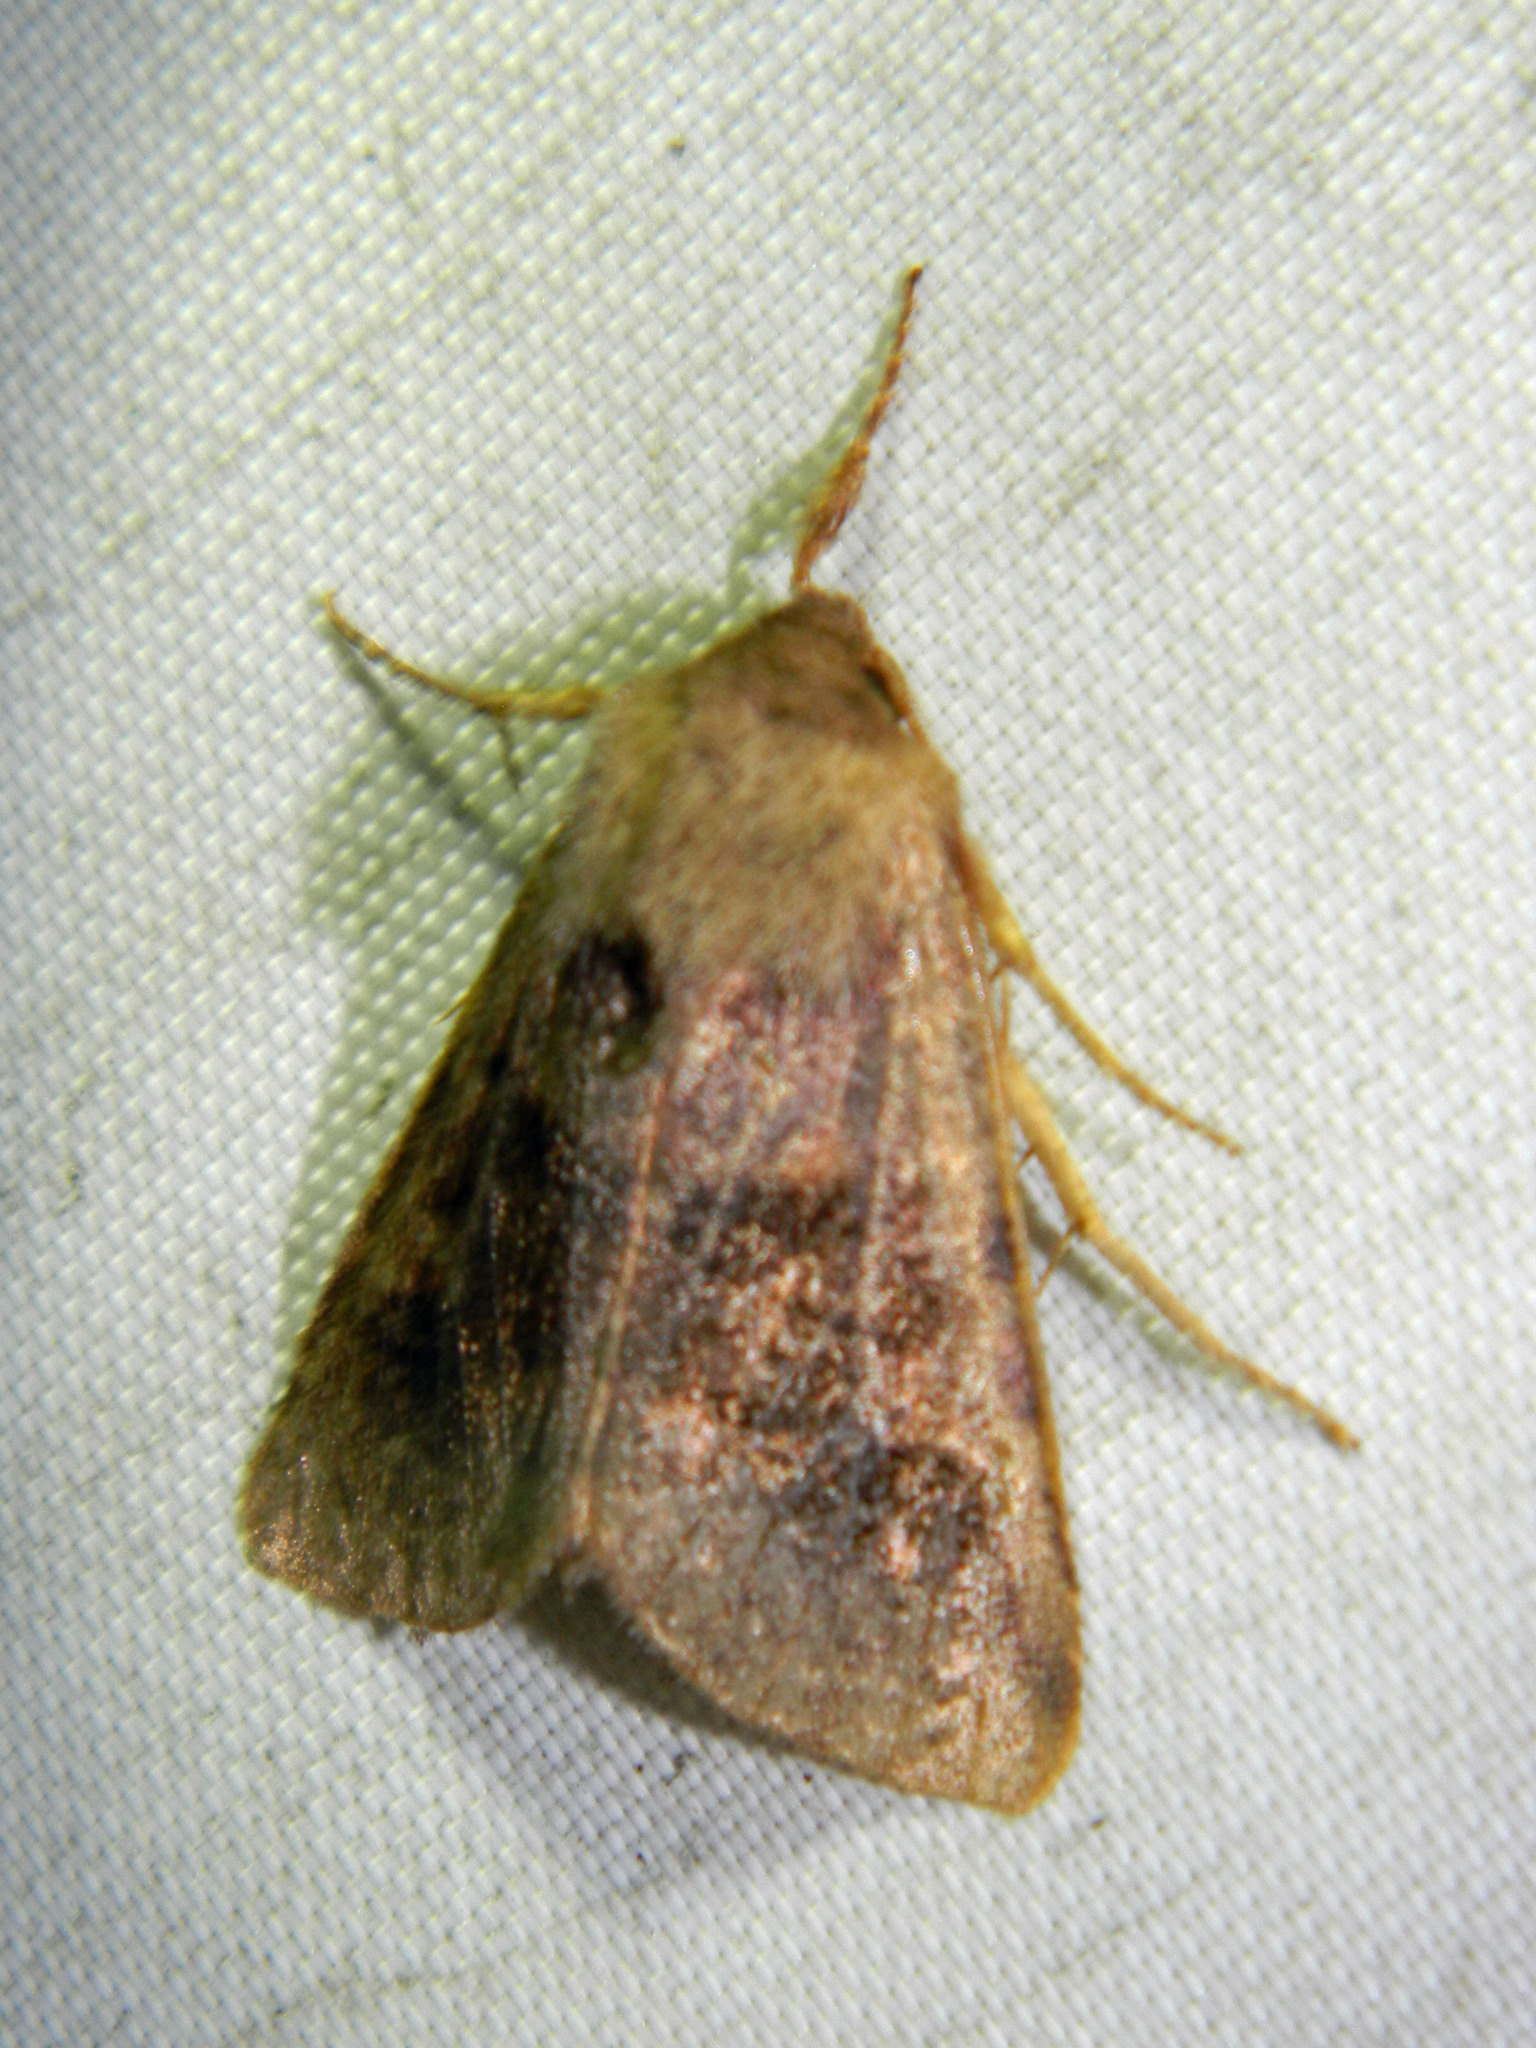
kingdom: Animalia
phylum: Arthropoda
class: Insecta
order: Lepidoptera
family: Noctuidae
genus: Nephelodes
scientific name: Nephelodes minians
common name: Bronzed cutworm
